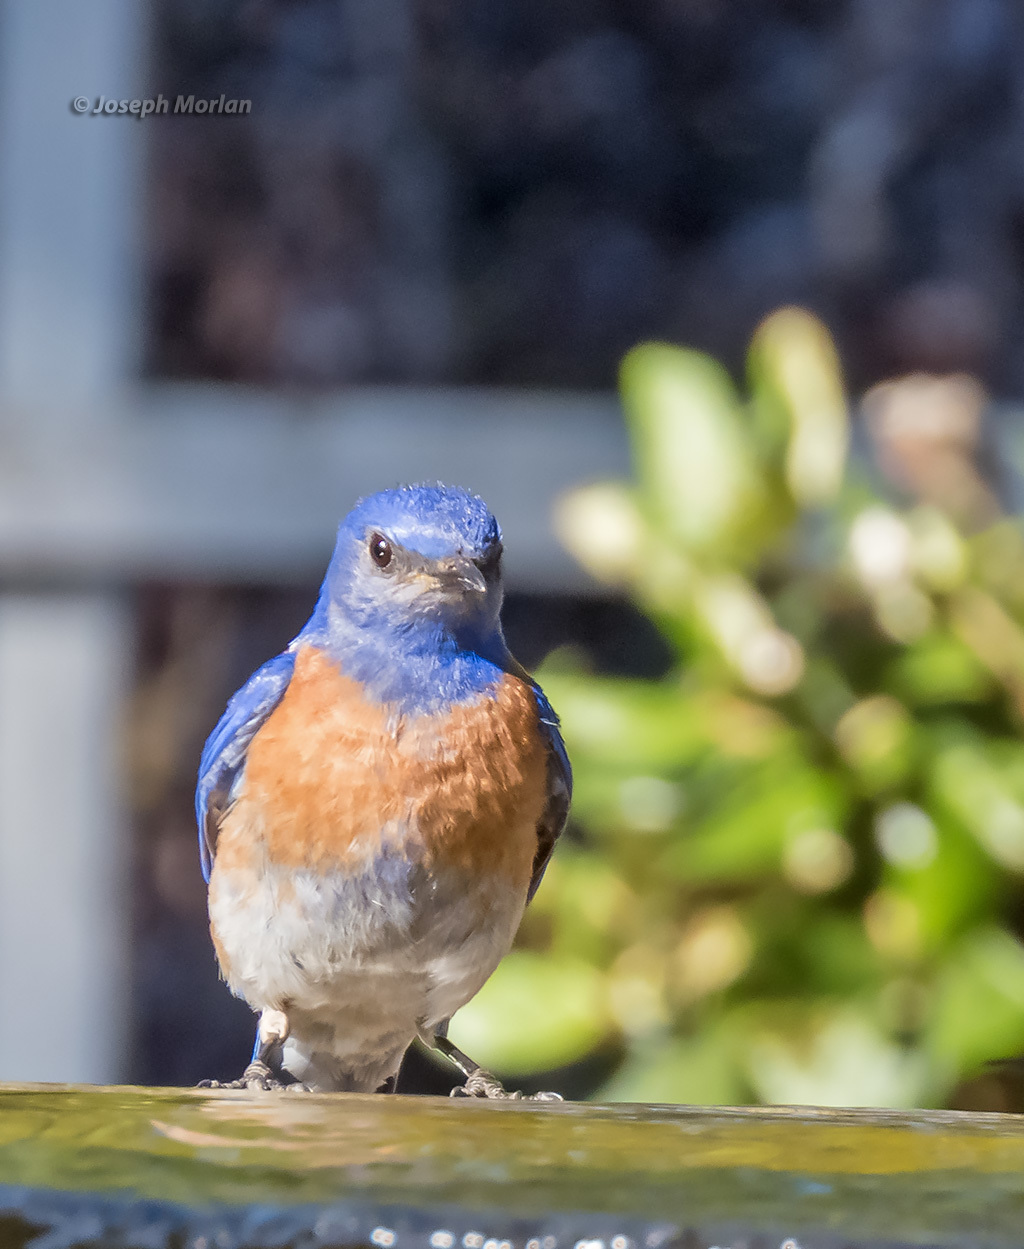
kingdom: Animalia
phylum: Chordata
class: Aves
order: Passeriformes
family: Turdidae
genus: Sialia
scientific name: Sialia mexicana
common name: Western bluebird
